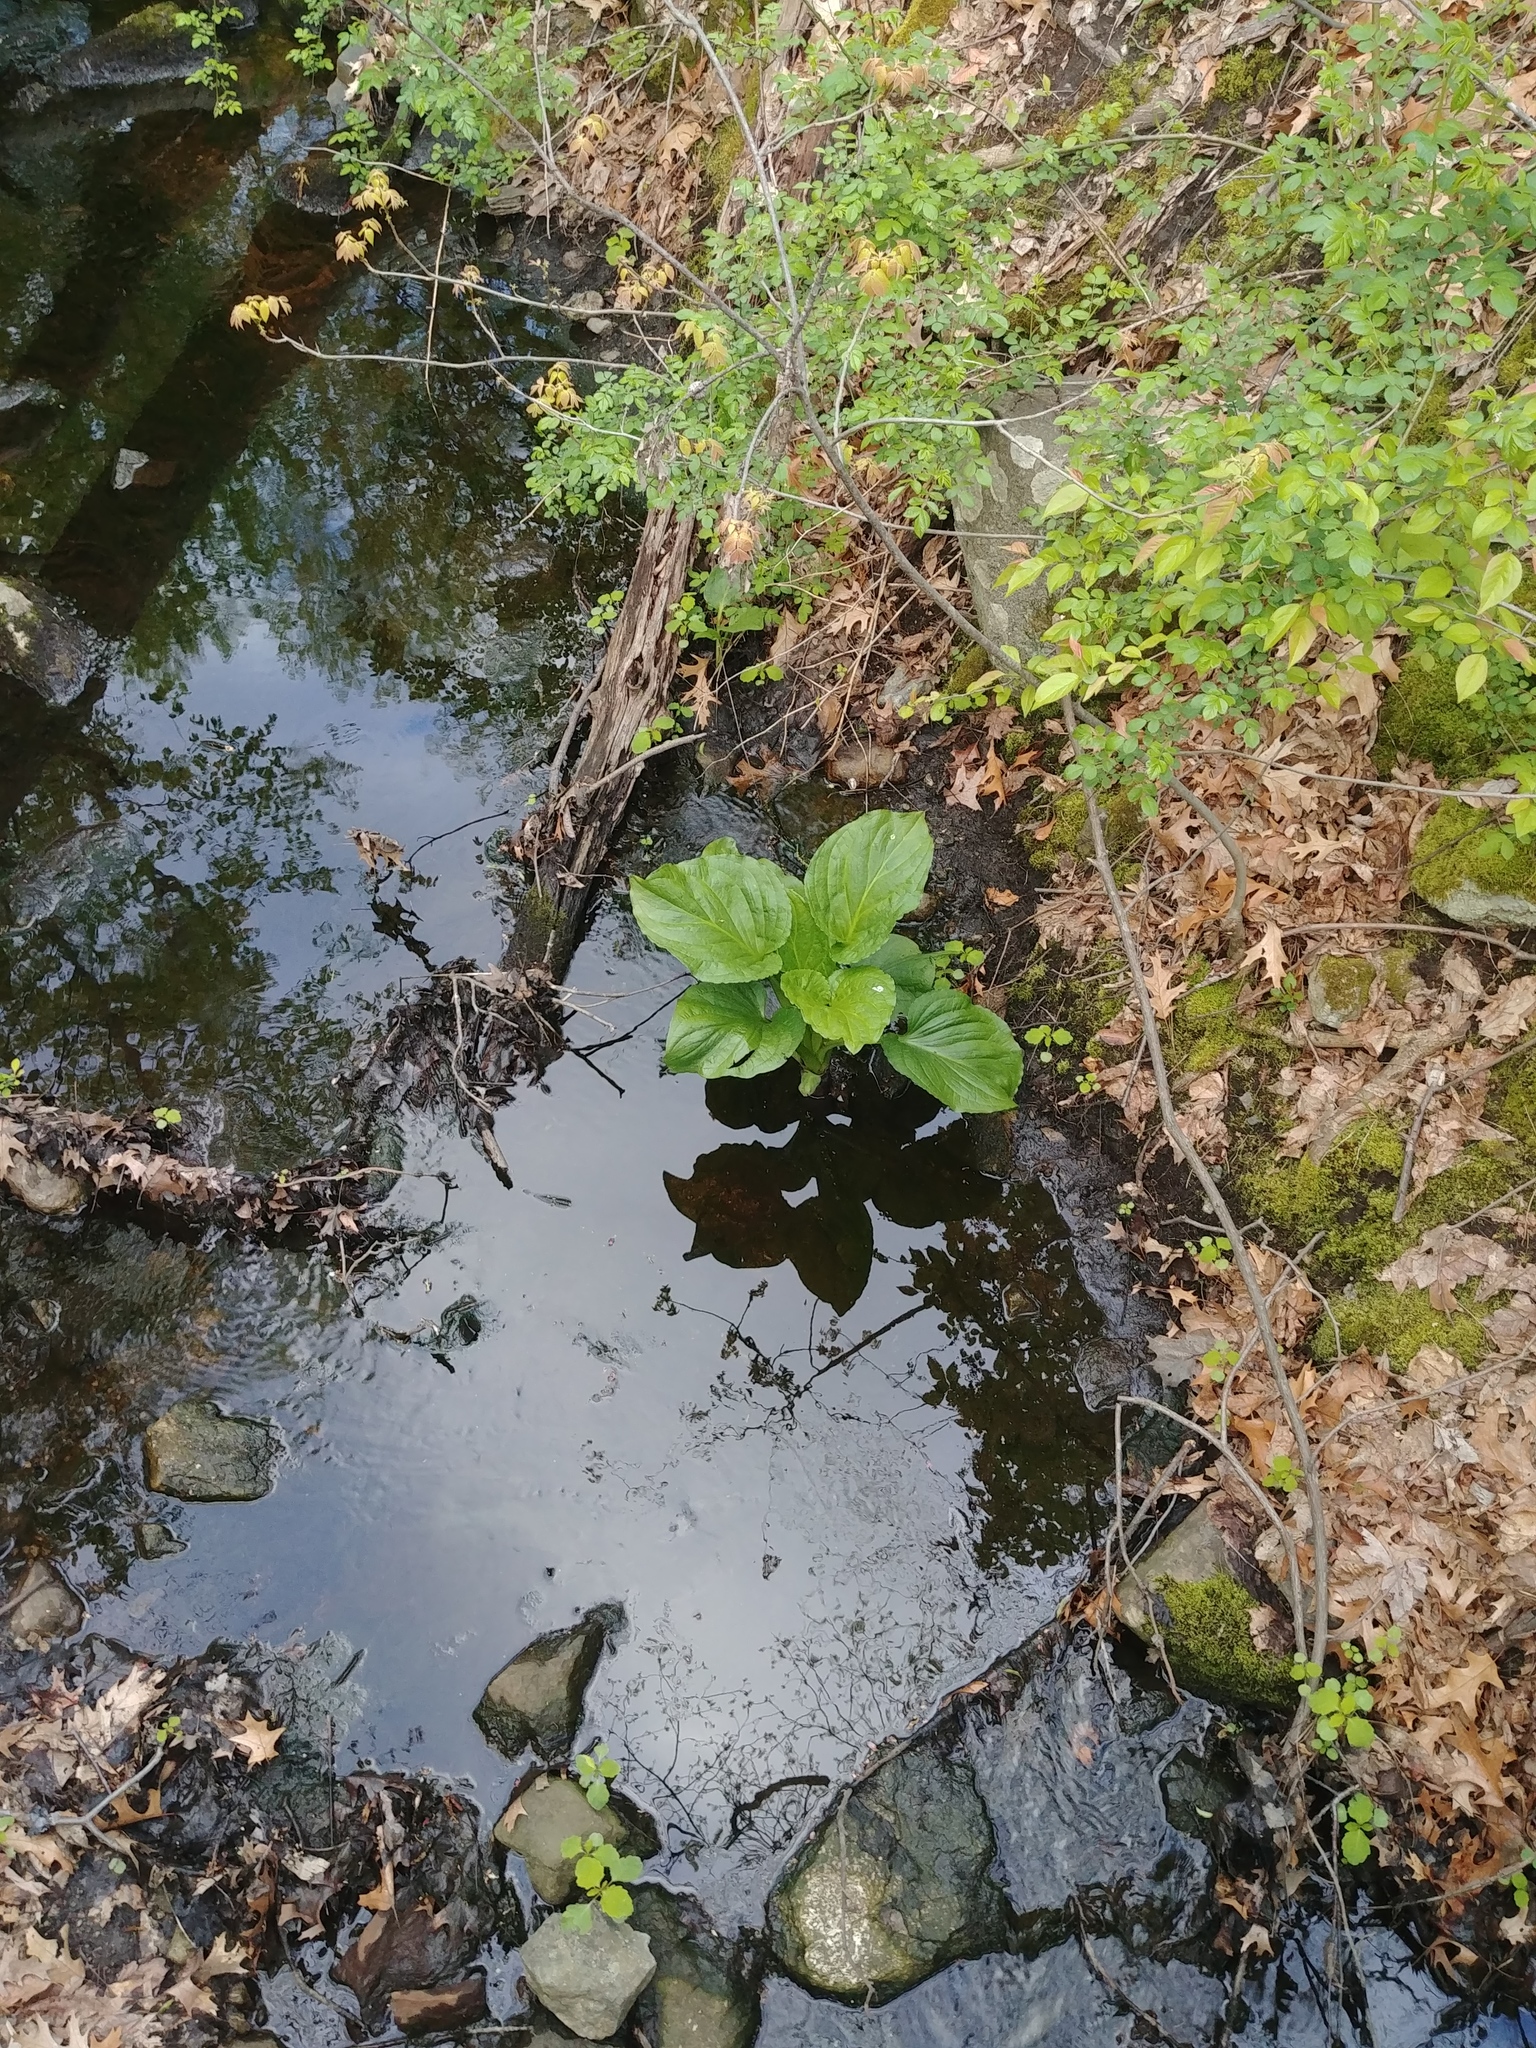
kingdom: Plantae
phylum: Tracheophyta
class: Liliopsida
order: Alismatales
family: Araceae
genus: Symplocarpus
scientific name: Symplocarpus foetidus
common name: Eastern skunk cabbage
